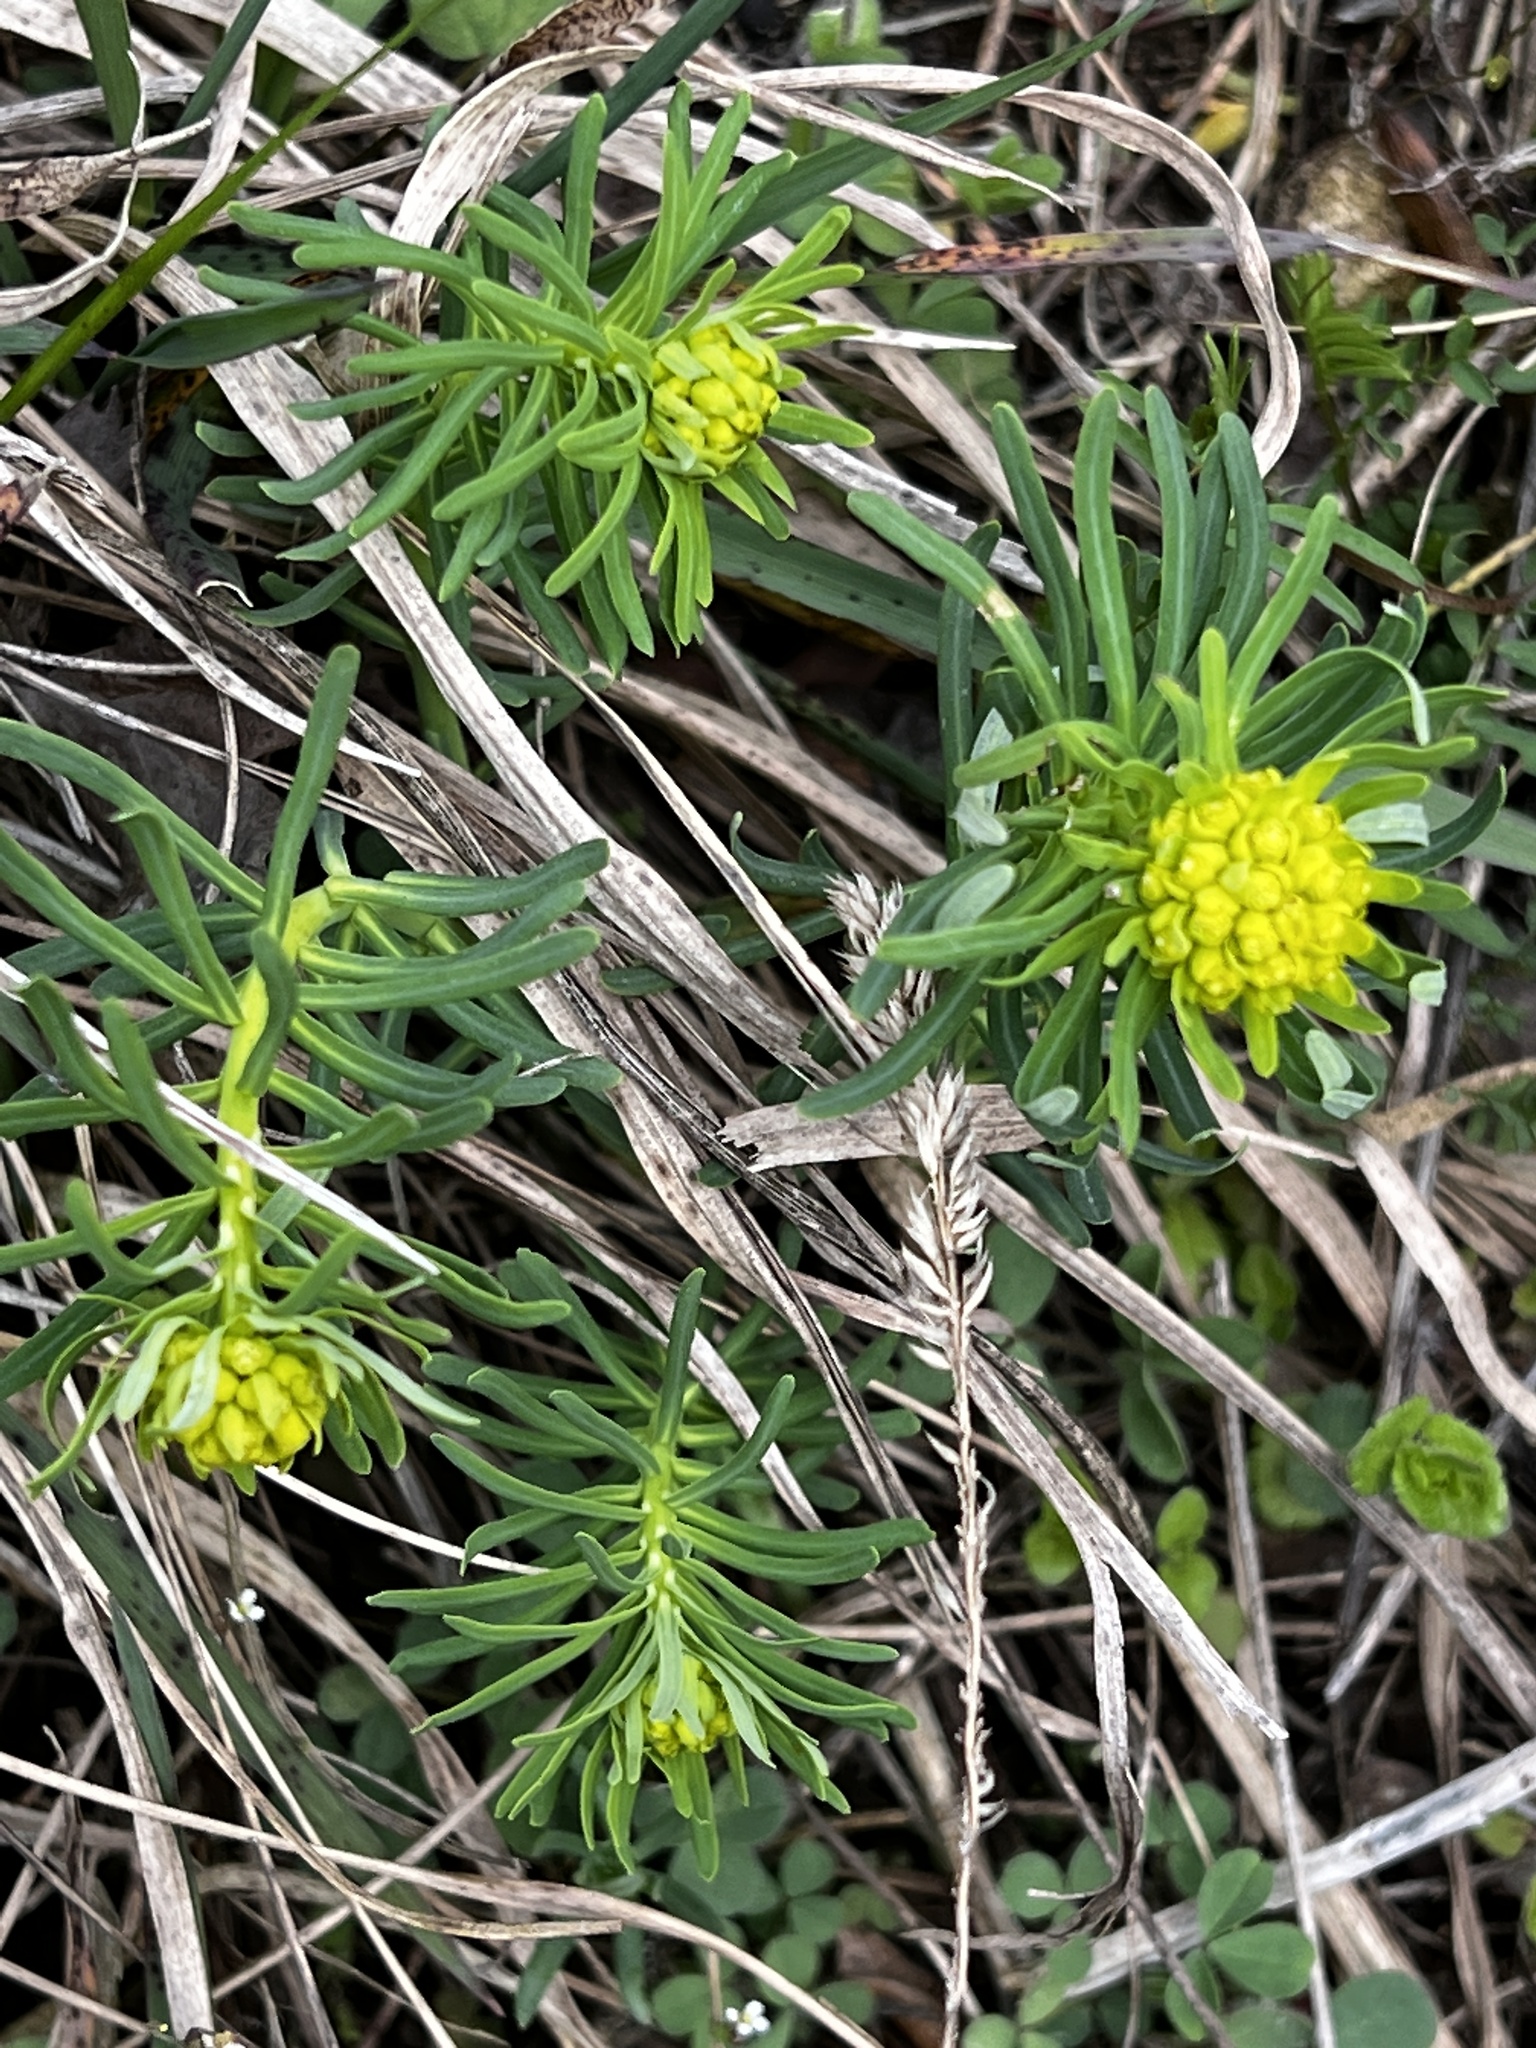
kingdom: Plantae
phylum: Tracheophyta
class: Magnoliopsida
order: Malpighiales
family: Euphorbiaceae
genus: Euphorbia
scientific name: Euphorbia cyparissias
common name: Cypress spurge
